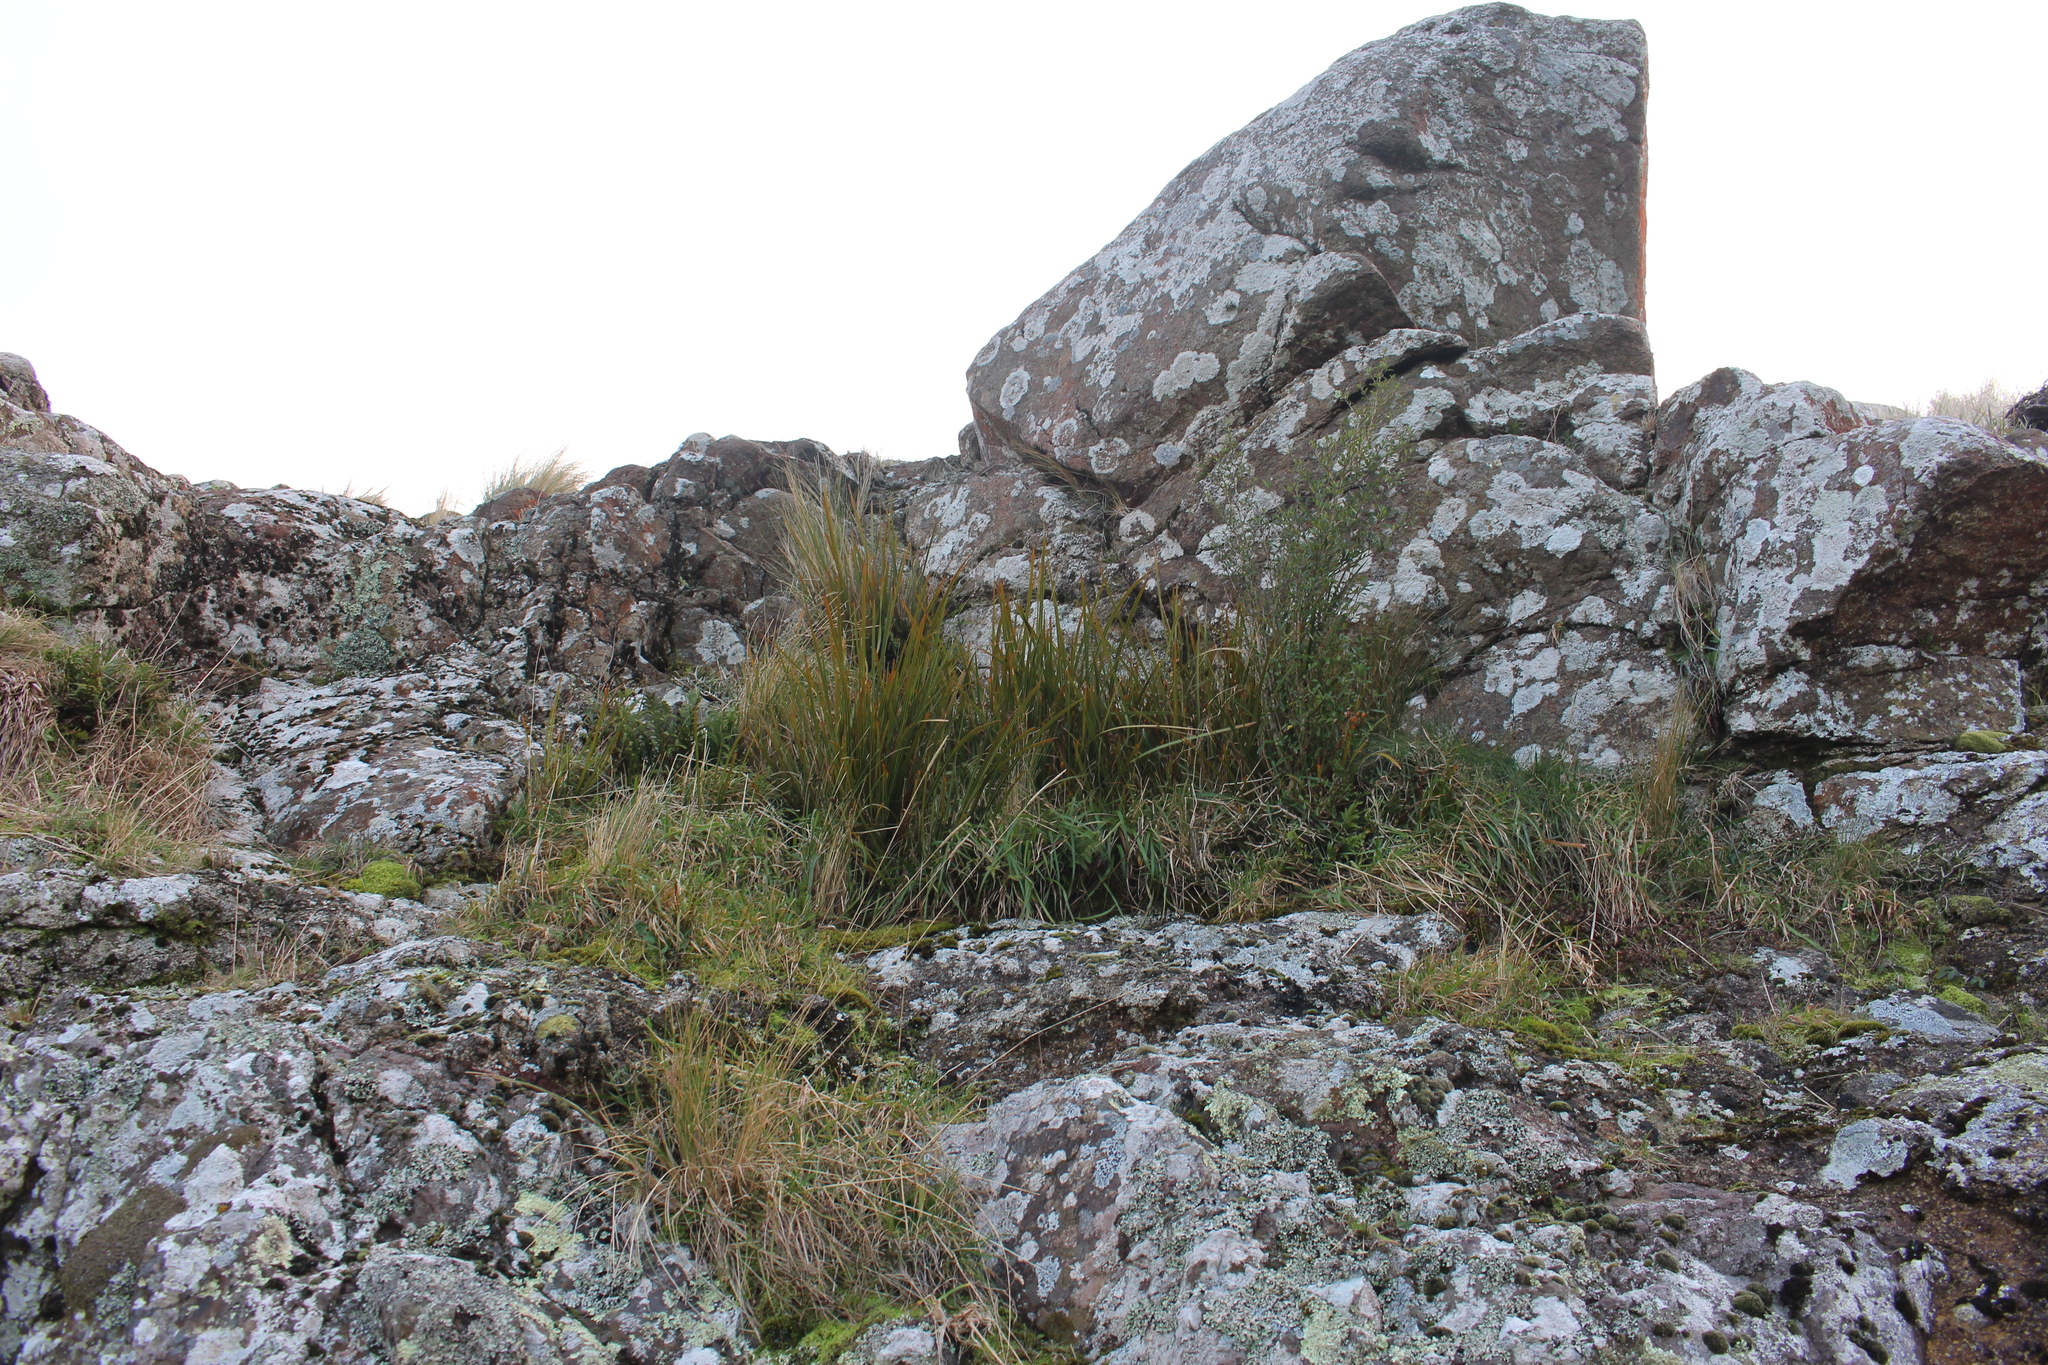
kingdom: Plantae
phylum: Tracheophyta
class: Liliopsida
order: Asparagales
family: Iridaceae
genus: Libertia
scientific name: Libertia ixioides
